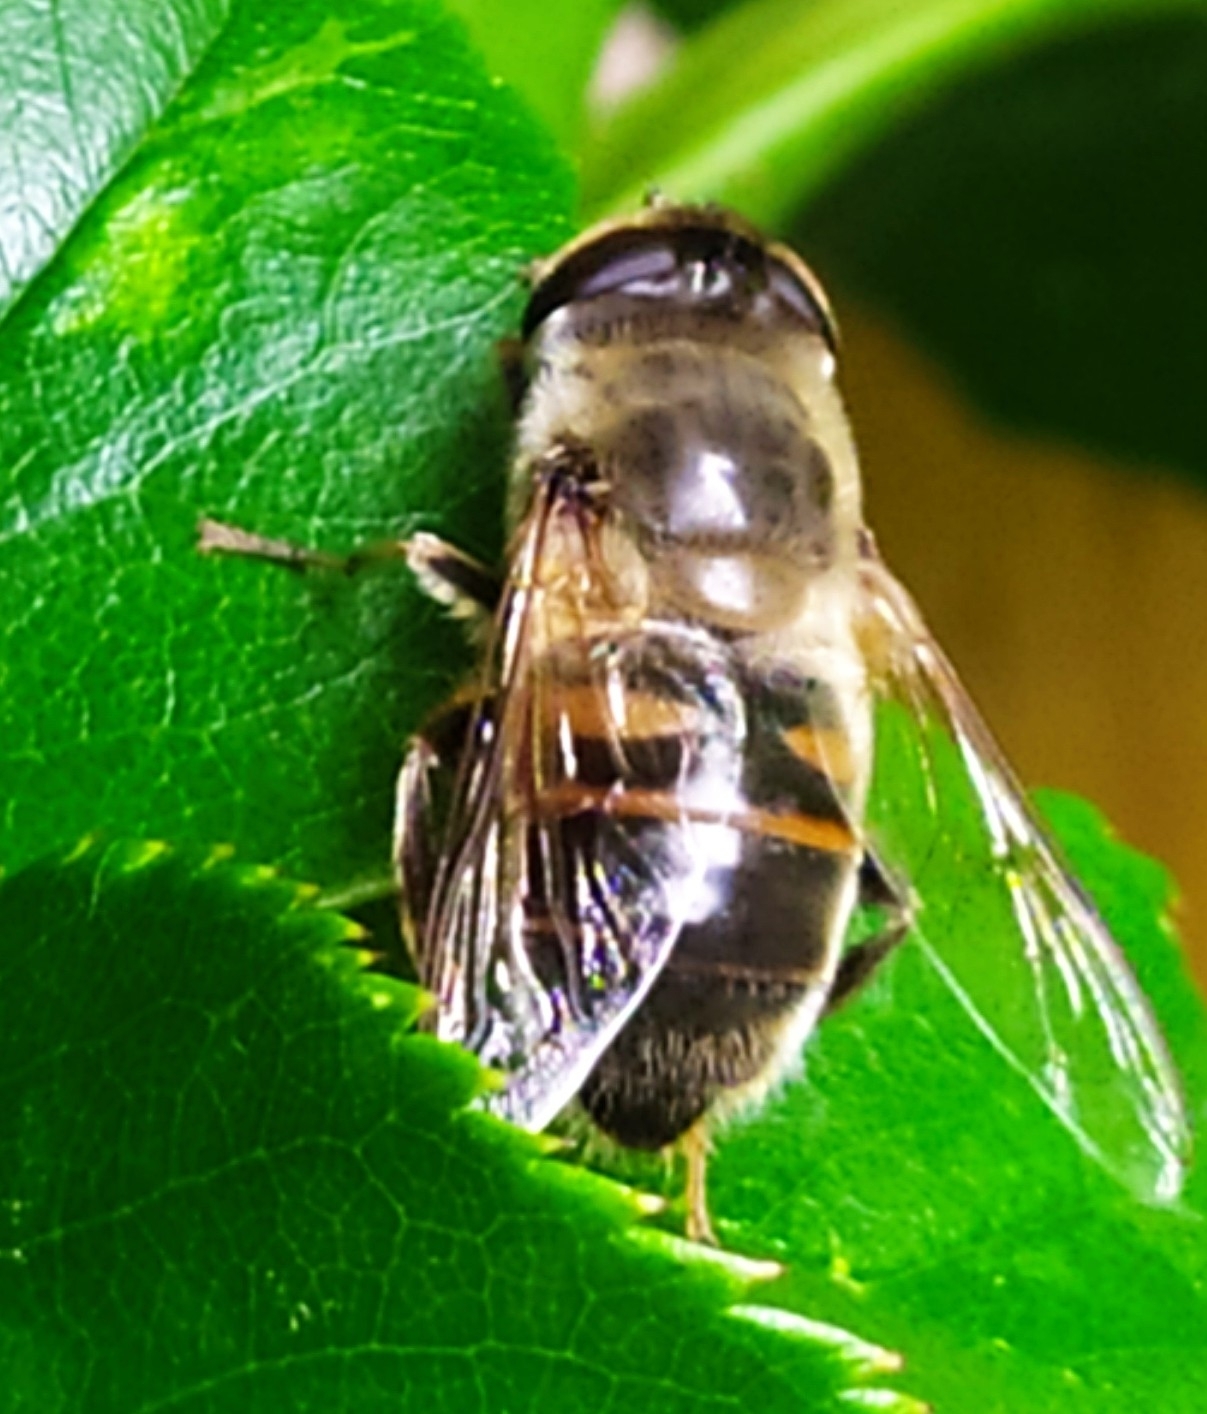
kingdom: Animalia
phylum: Arthropoda
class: Insecta
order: Diptera
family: Syrphidae
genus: Eristalis
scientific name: Eristalis tenax
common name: Drone fly
